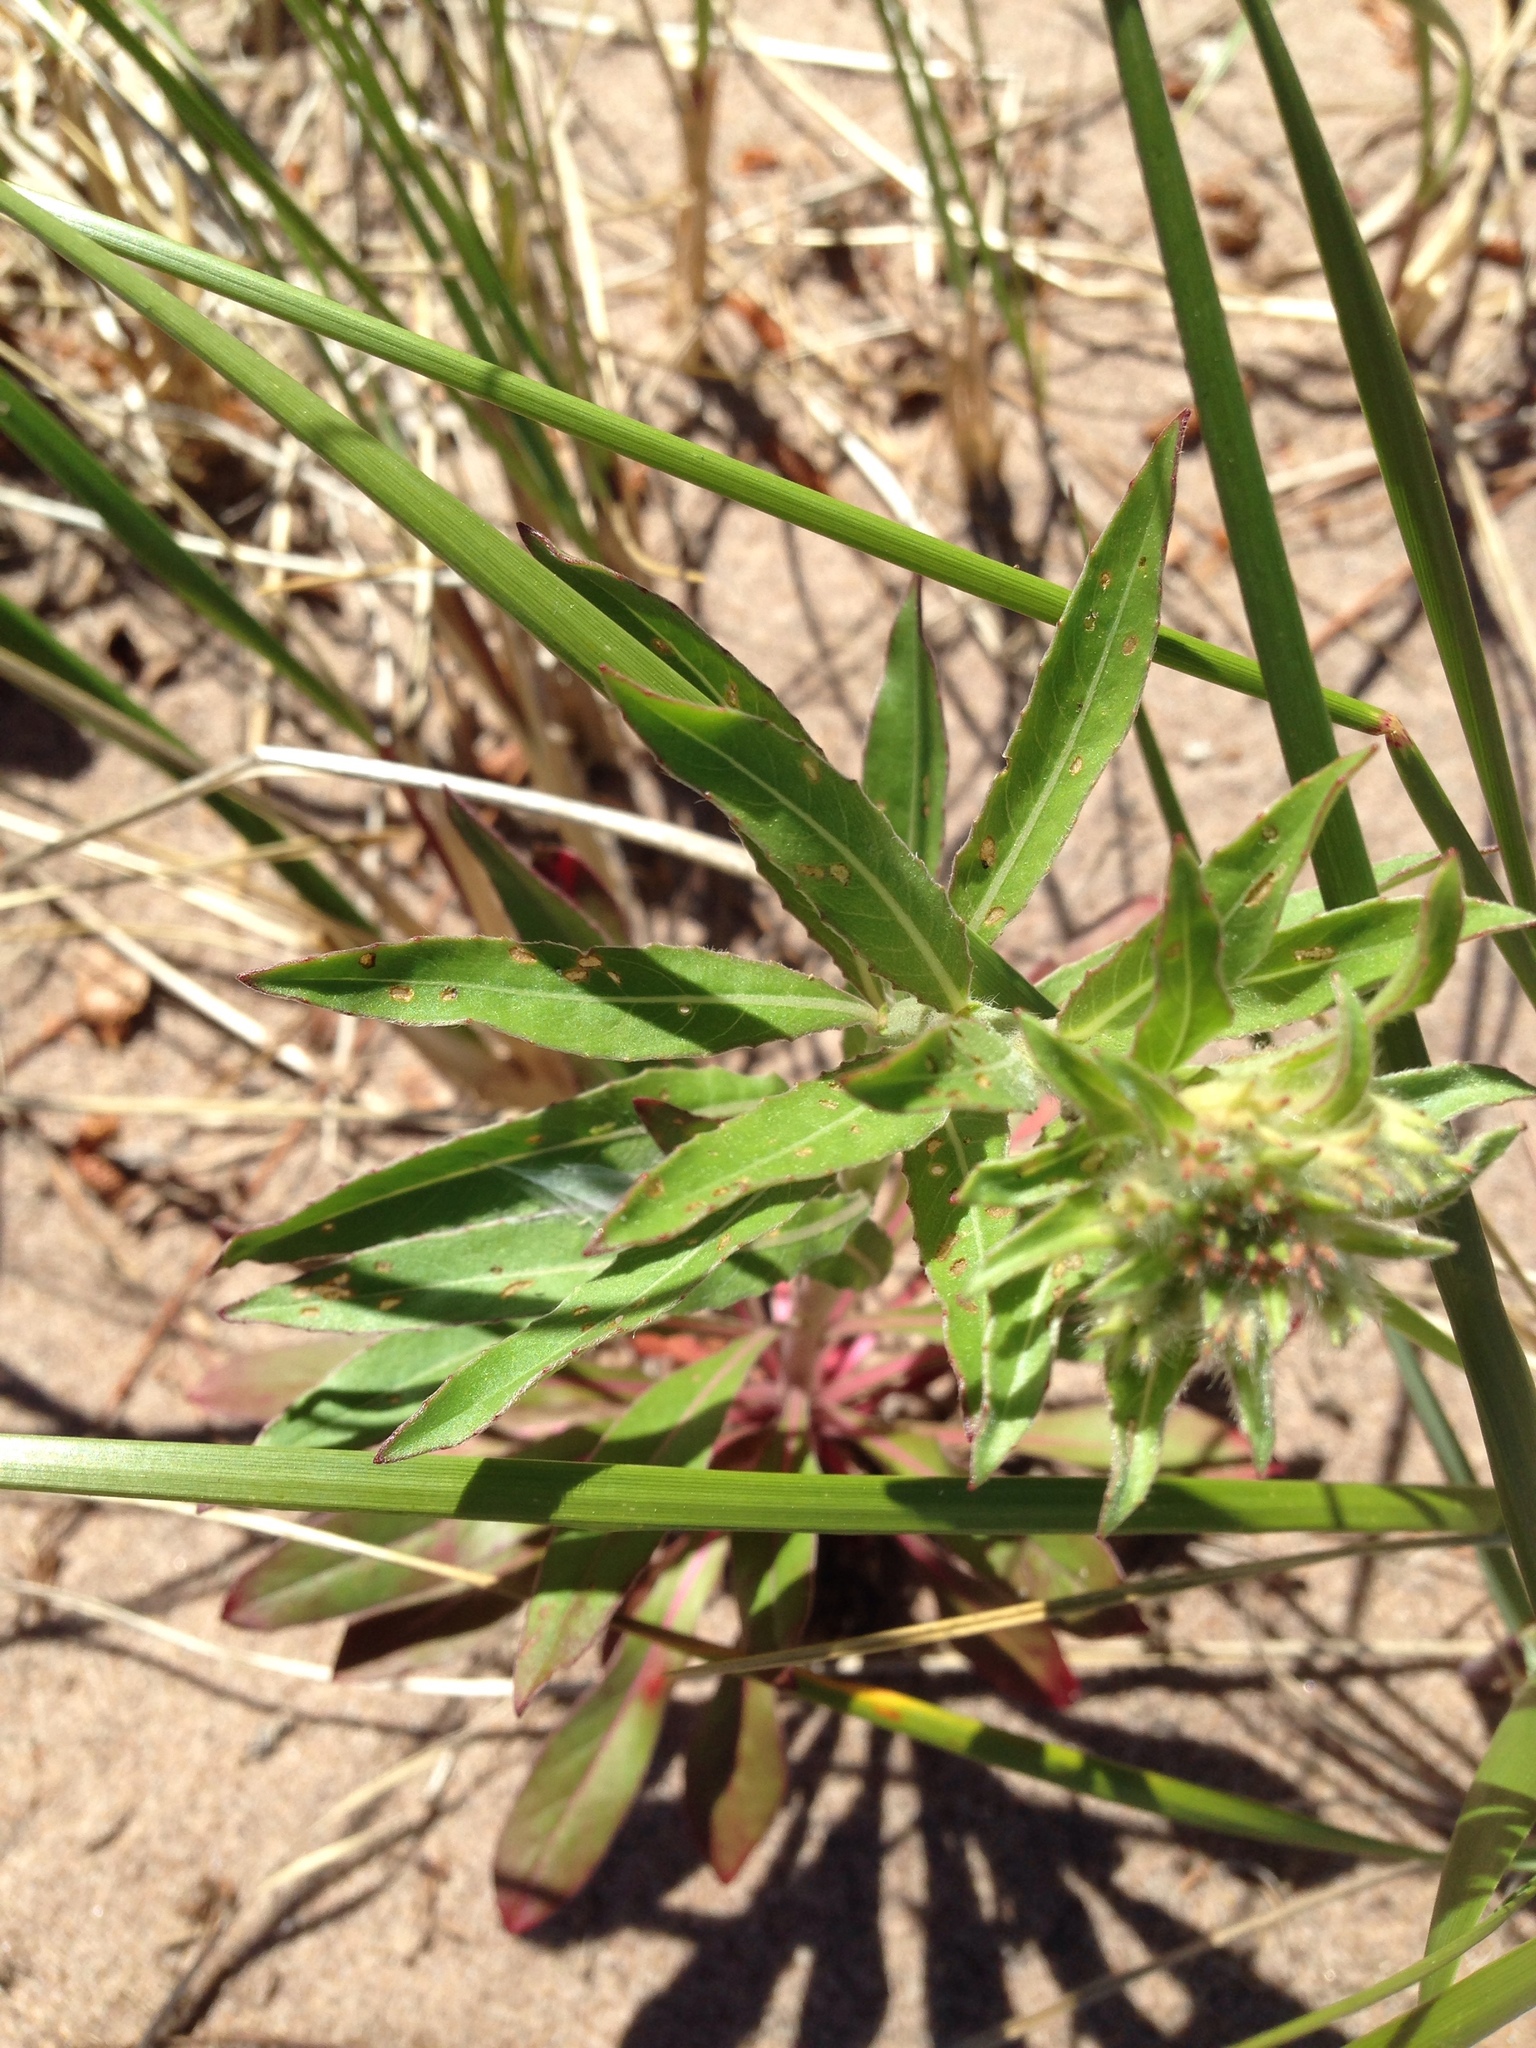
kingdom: Plantae
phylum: Tracheophyta
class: Magnoliopsida
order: Myrtales
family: Onagraceae
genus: Oenothera
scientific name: Oenothera
